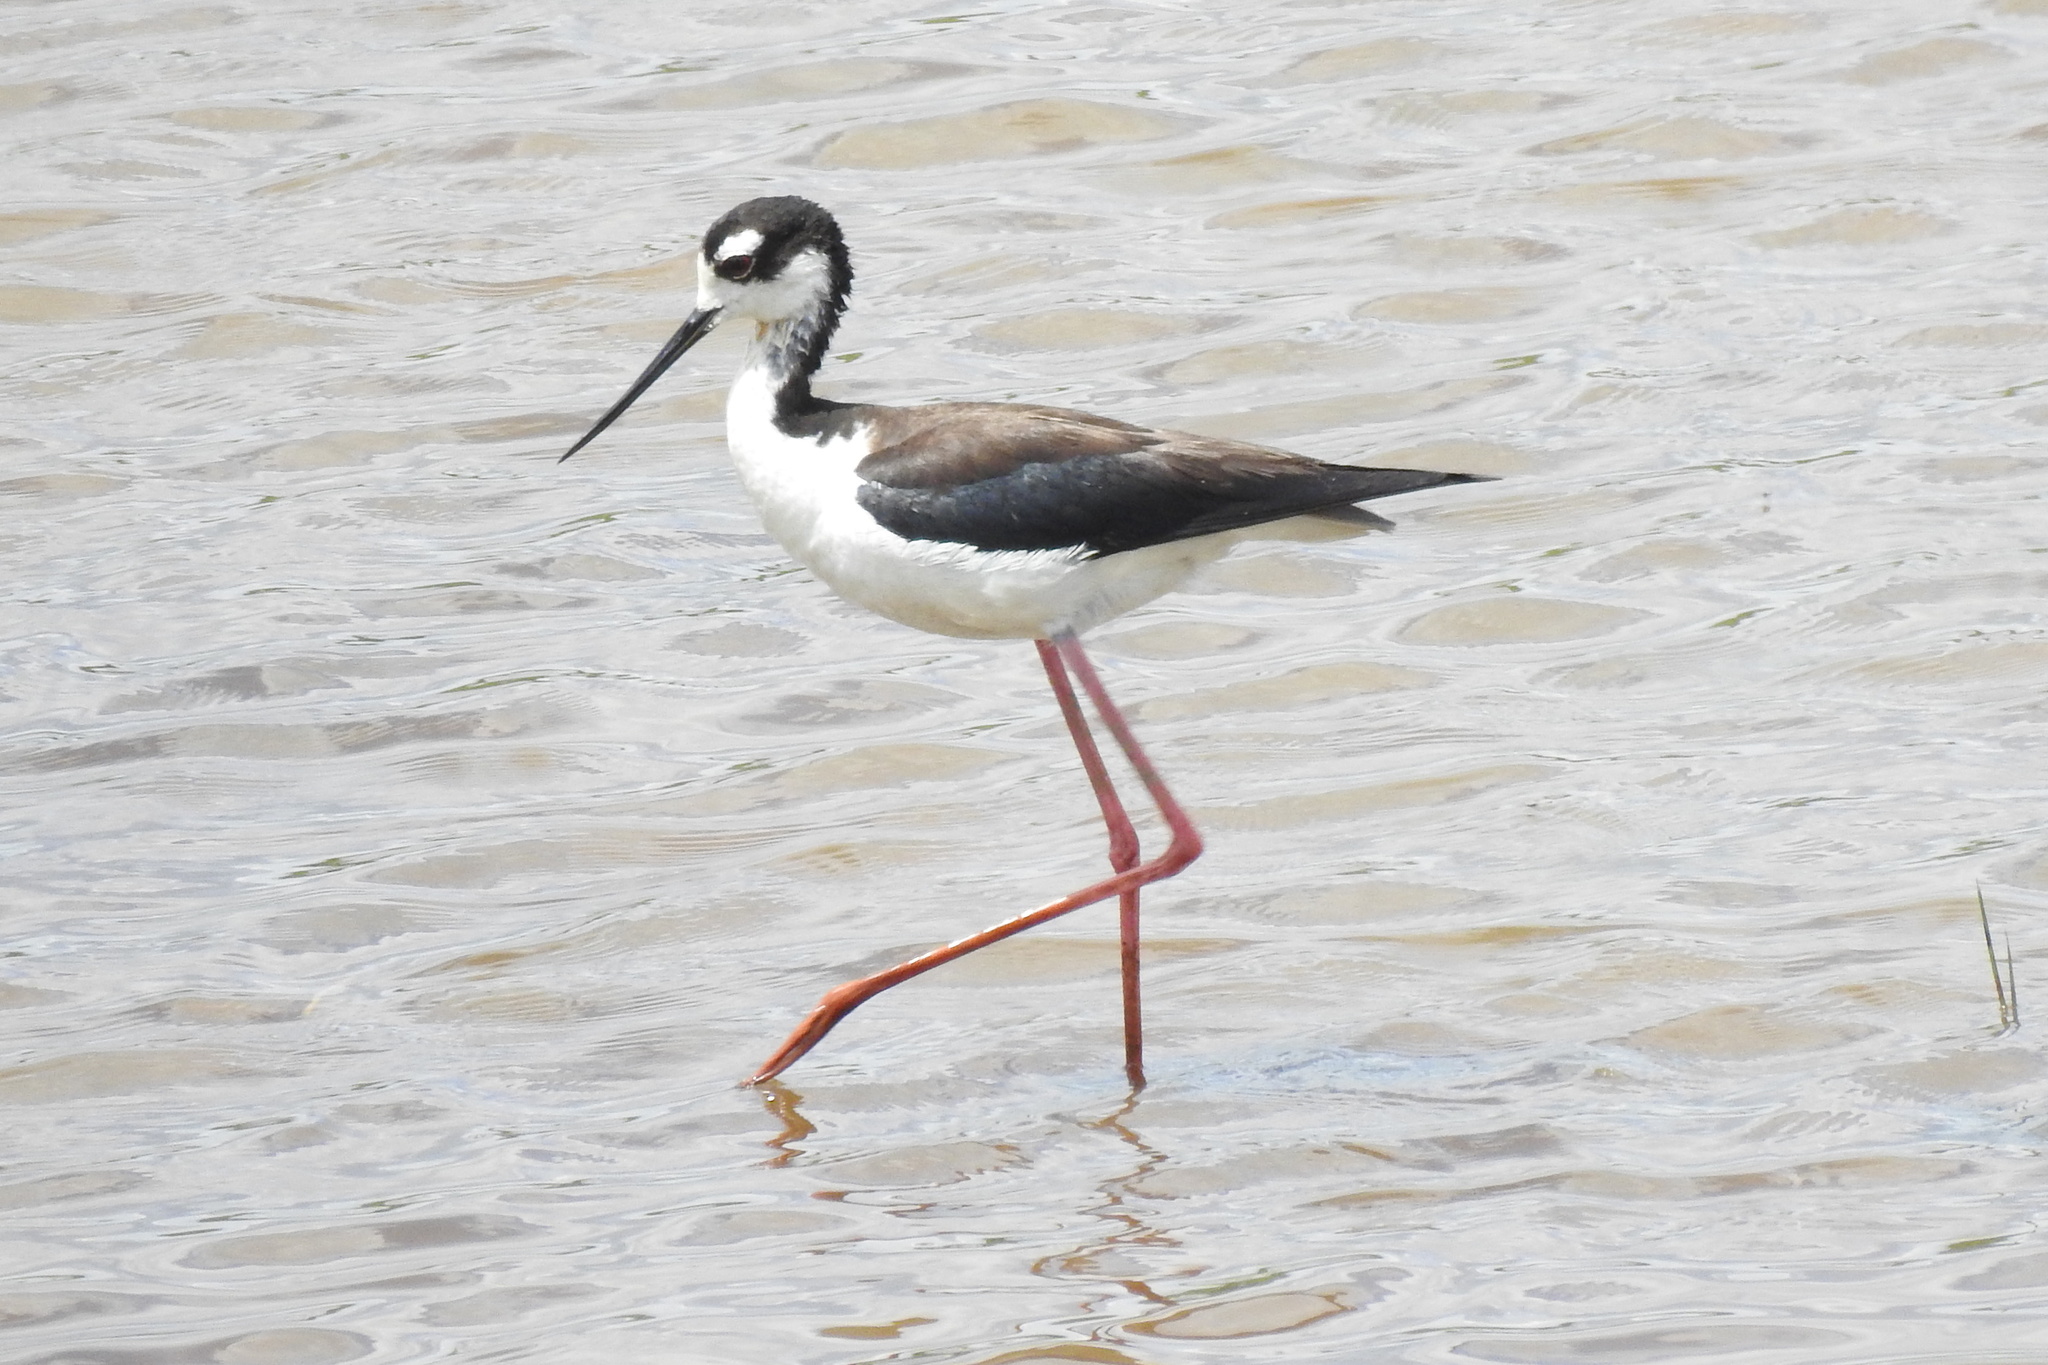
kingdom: Animalia
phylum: Chordata
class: Aves
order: Charadriiformes
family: Recurvirostridae
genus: Himantopus
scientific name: Himantopus mexicanus
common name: Black-necked stilt
